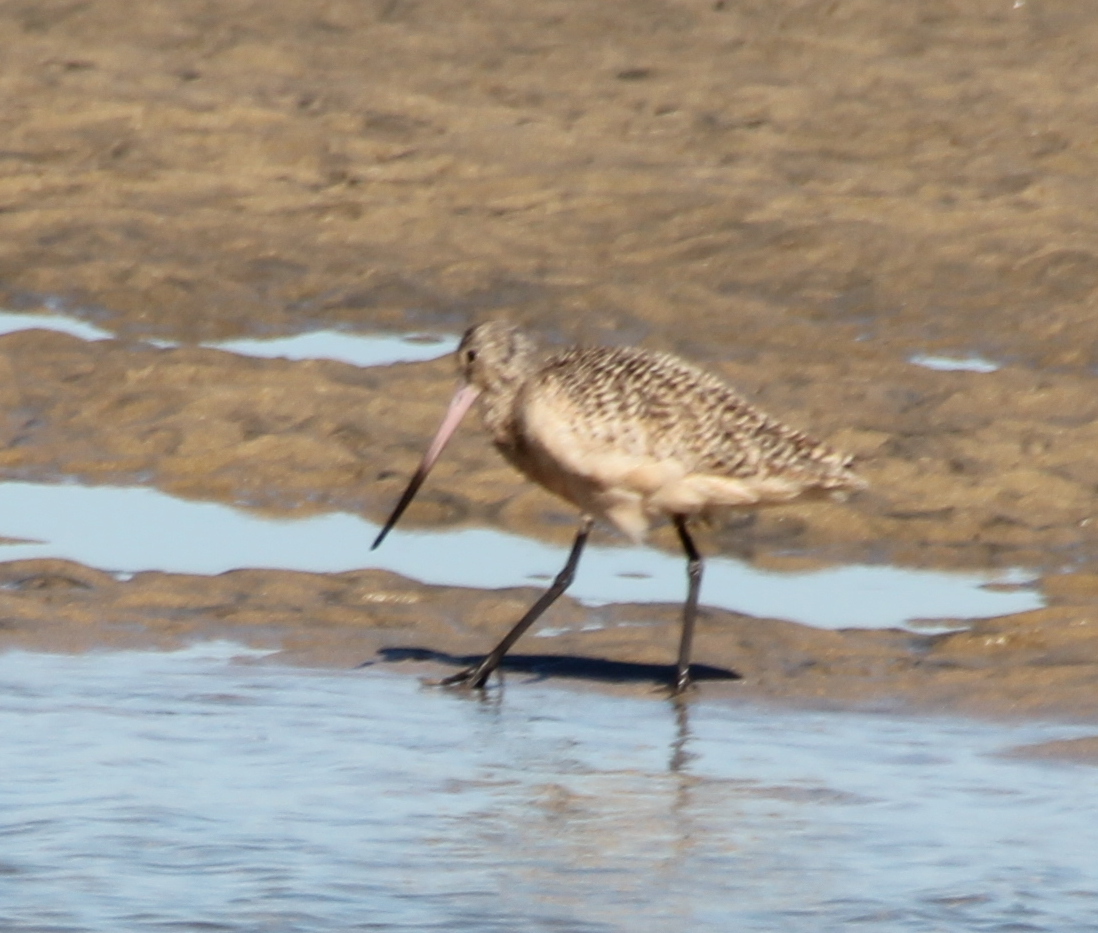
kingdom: Animalia
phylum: Chordata
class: Aves
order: Charadriiformes
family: Scolopacidae
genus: Limosa
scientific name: Limosa fedoa
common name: Marbled godwit
